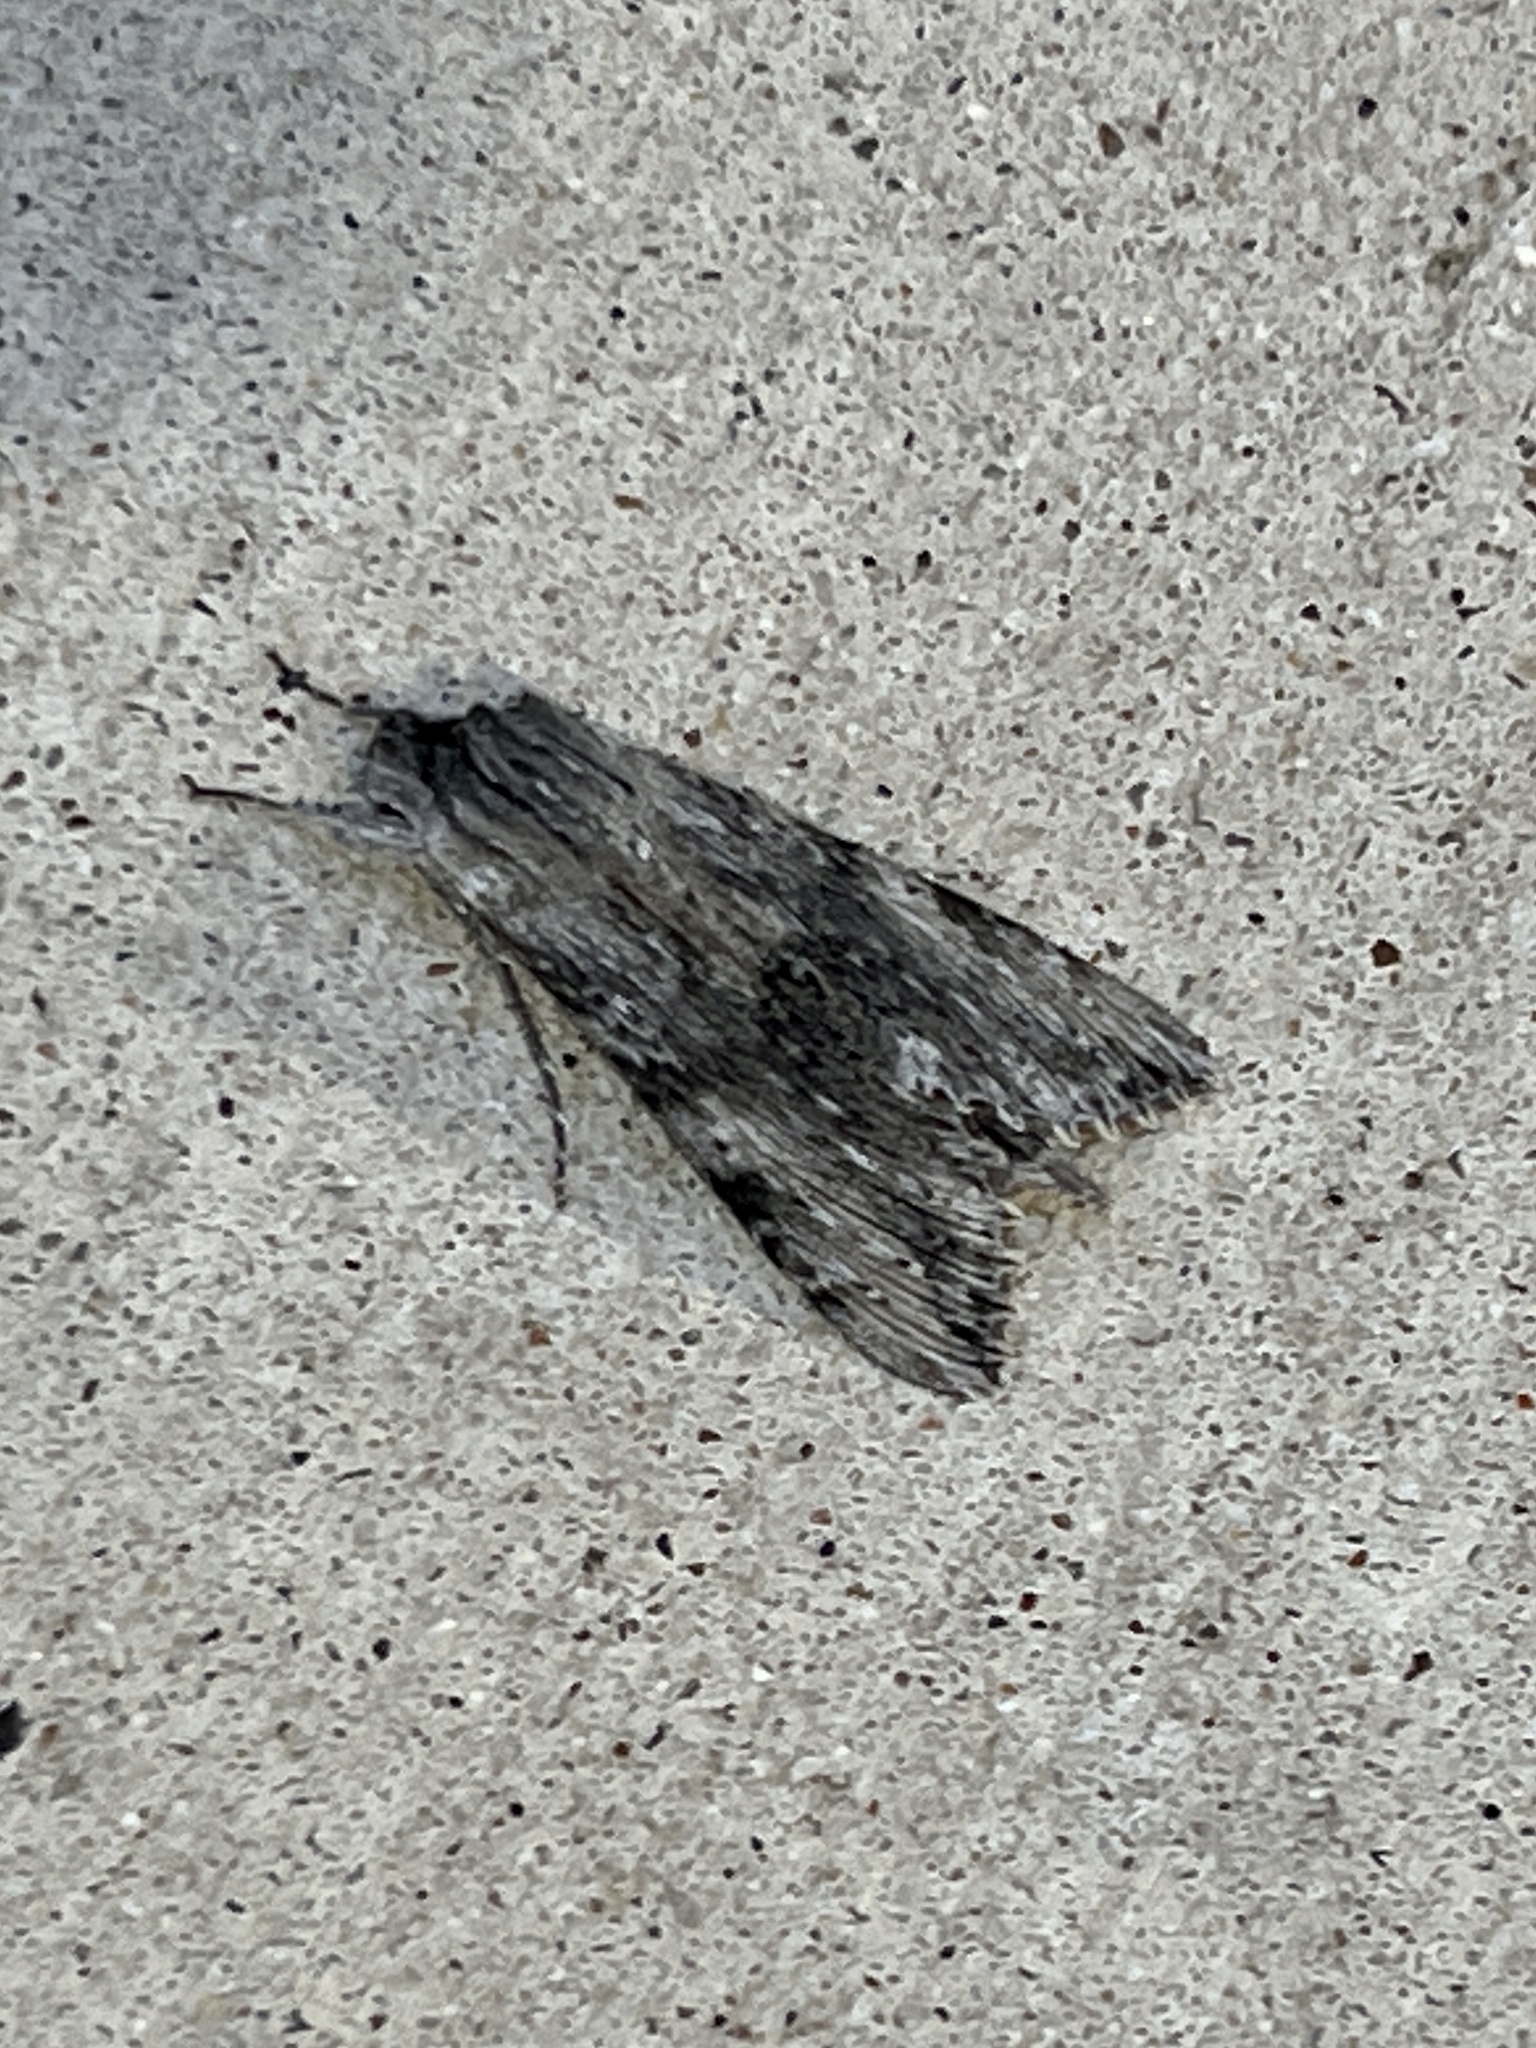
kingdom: Animalia
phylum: Arthropoda
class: Insecta
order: Lepidoptera
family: Sphingidae
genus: Erinnyis
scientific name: Erinnyis obscura
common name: Obscure sphinx
